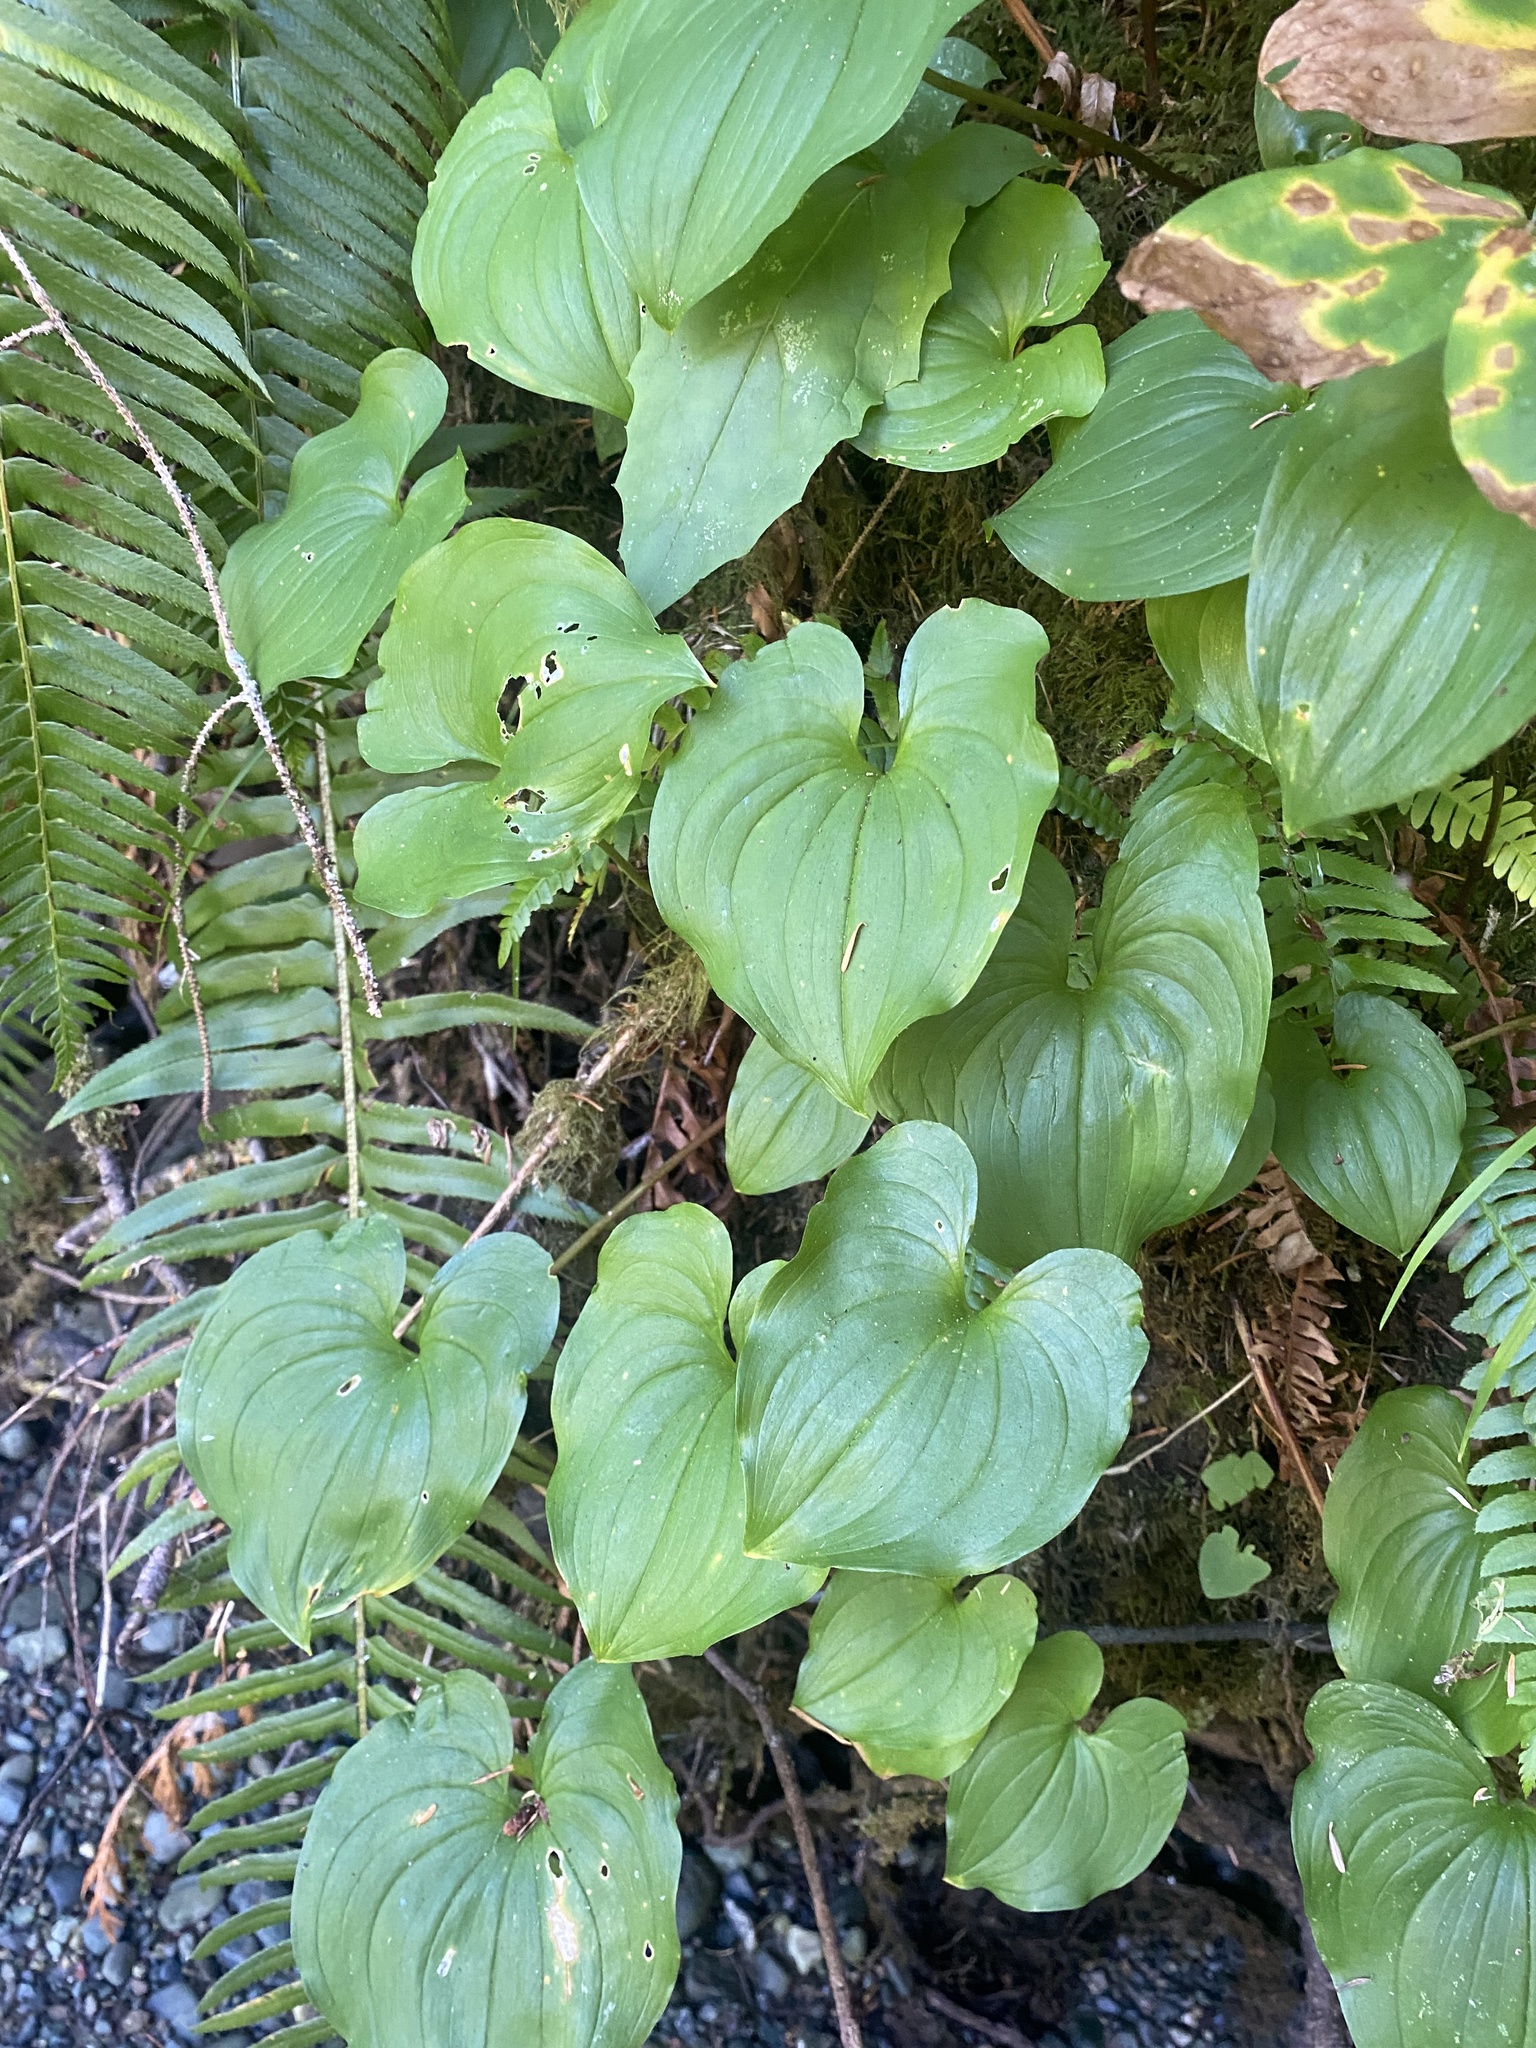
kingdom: Plantae
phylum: Tracheophyta
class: Liliopsida
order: Asparagales
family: Asparagaceae
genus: Maianthemum
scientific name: Maianthemum dilatatum
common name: False lily-of-the-valley
